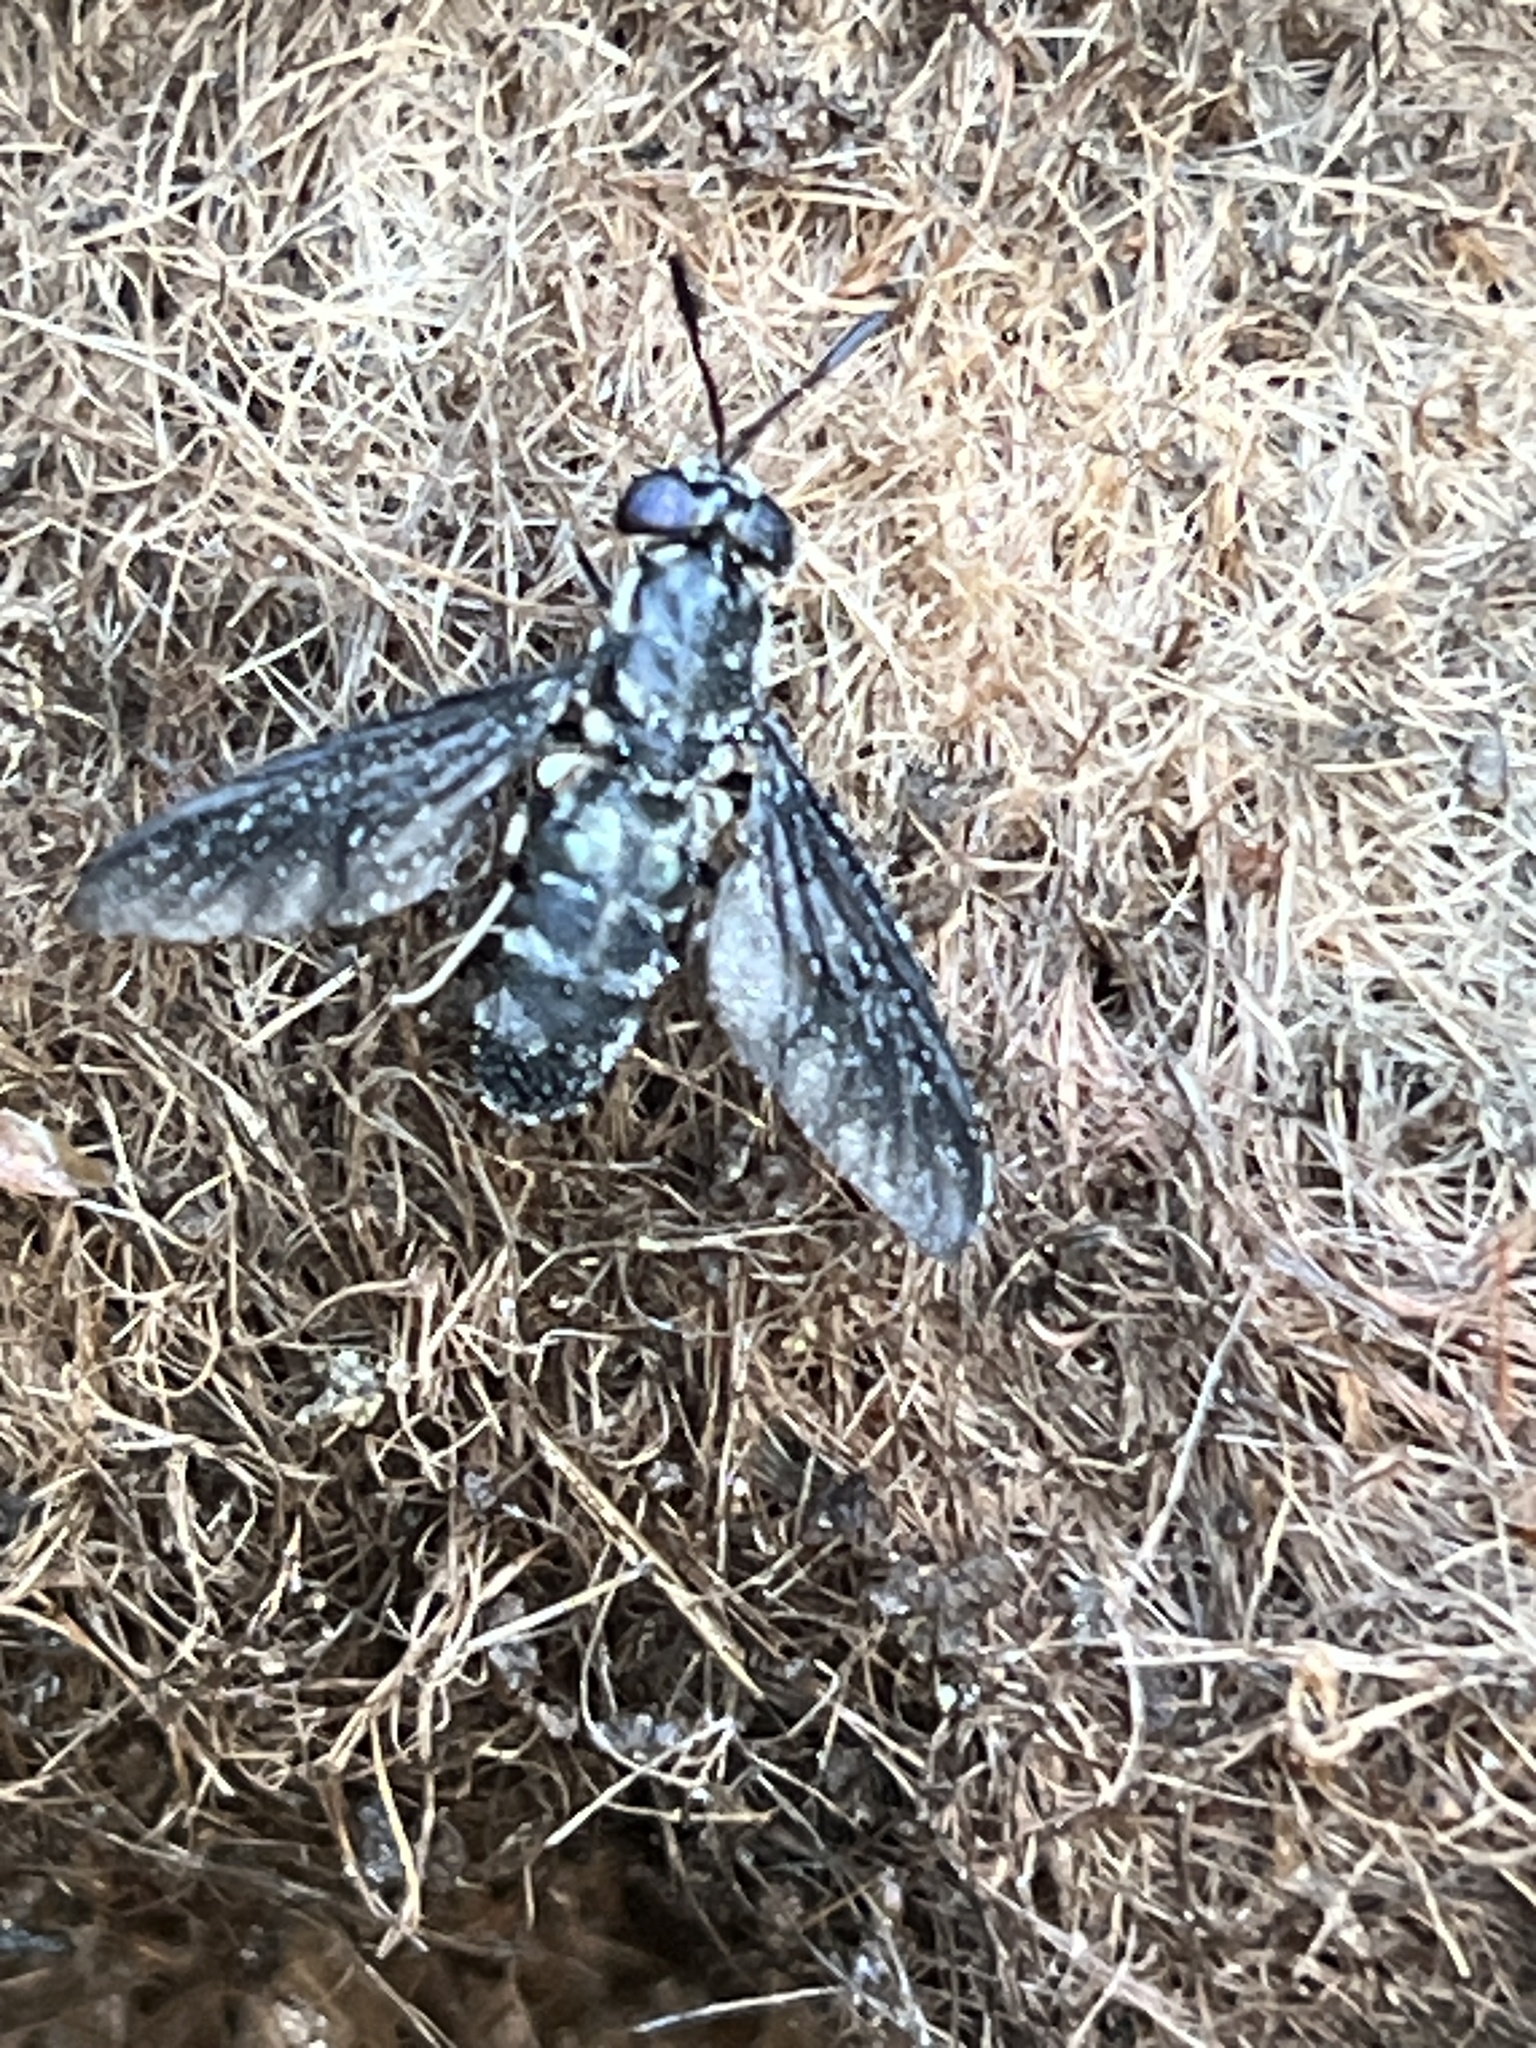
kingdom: Animalia
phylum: Arthropoda
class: Insecta
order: Diptera
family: Stratiomyidae
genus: Hermetia
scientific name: Hermetia illucens
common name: Black soldier fly
